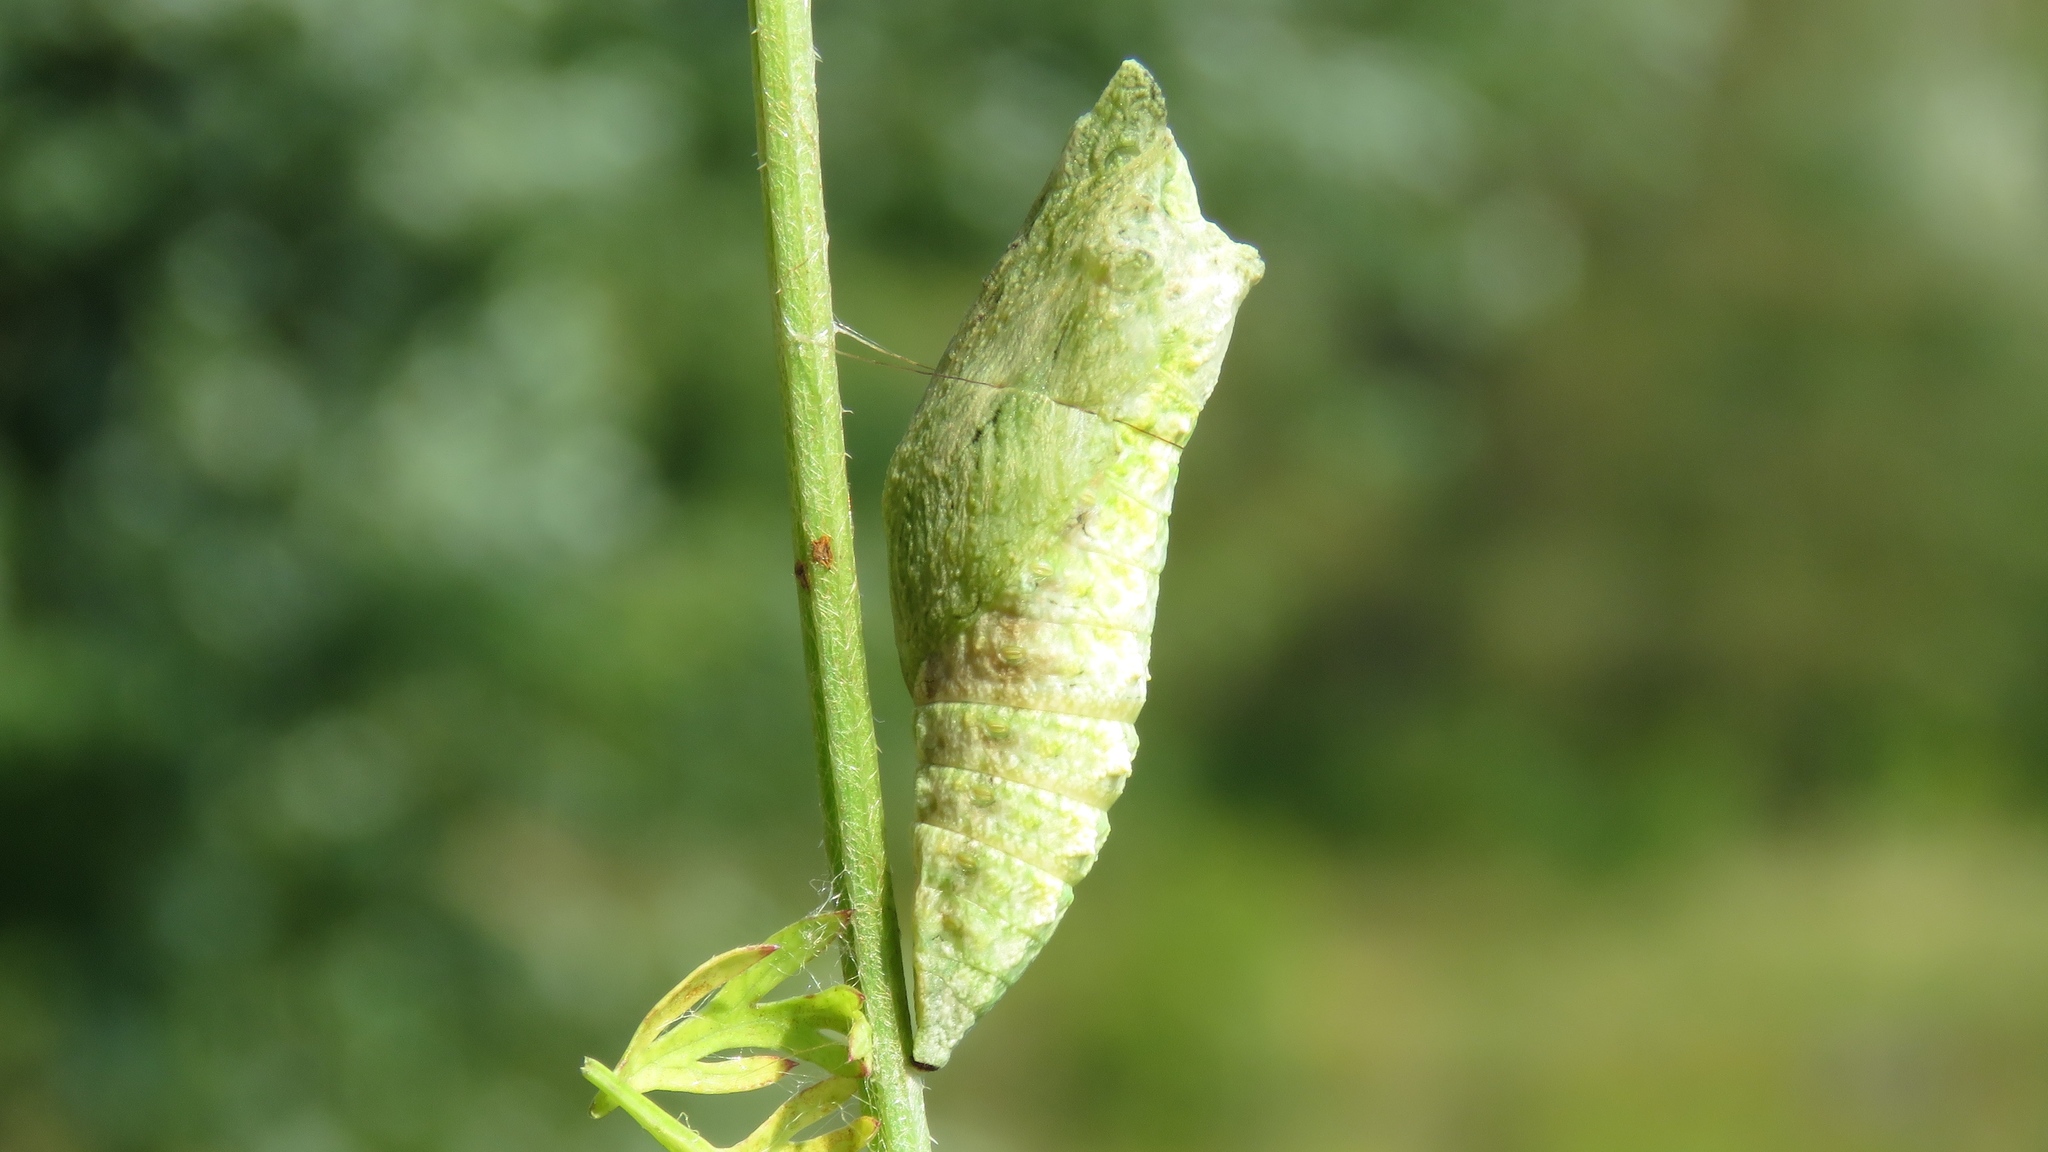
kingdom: Animalia
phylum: Arthropoda
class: Insecta
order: Lepidoptera
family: Papilionidae
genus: Papilio
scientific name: Papilio polyxenes
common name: Black swallowtail
